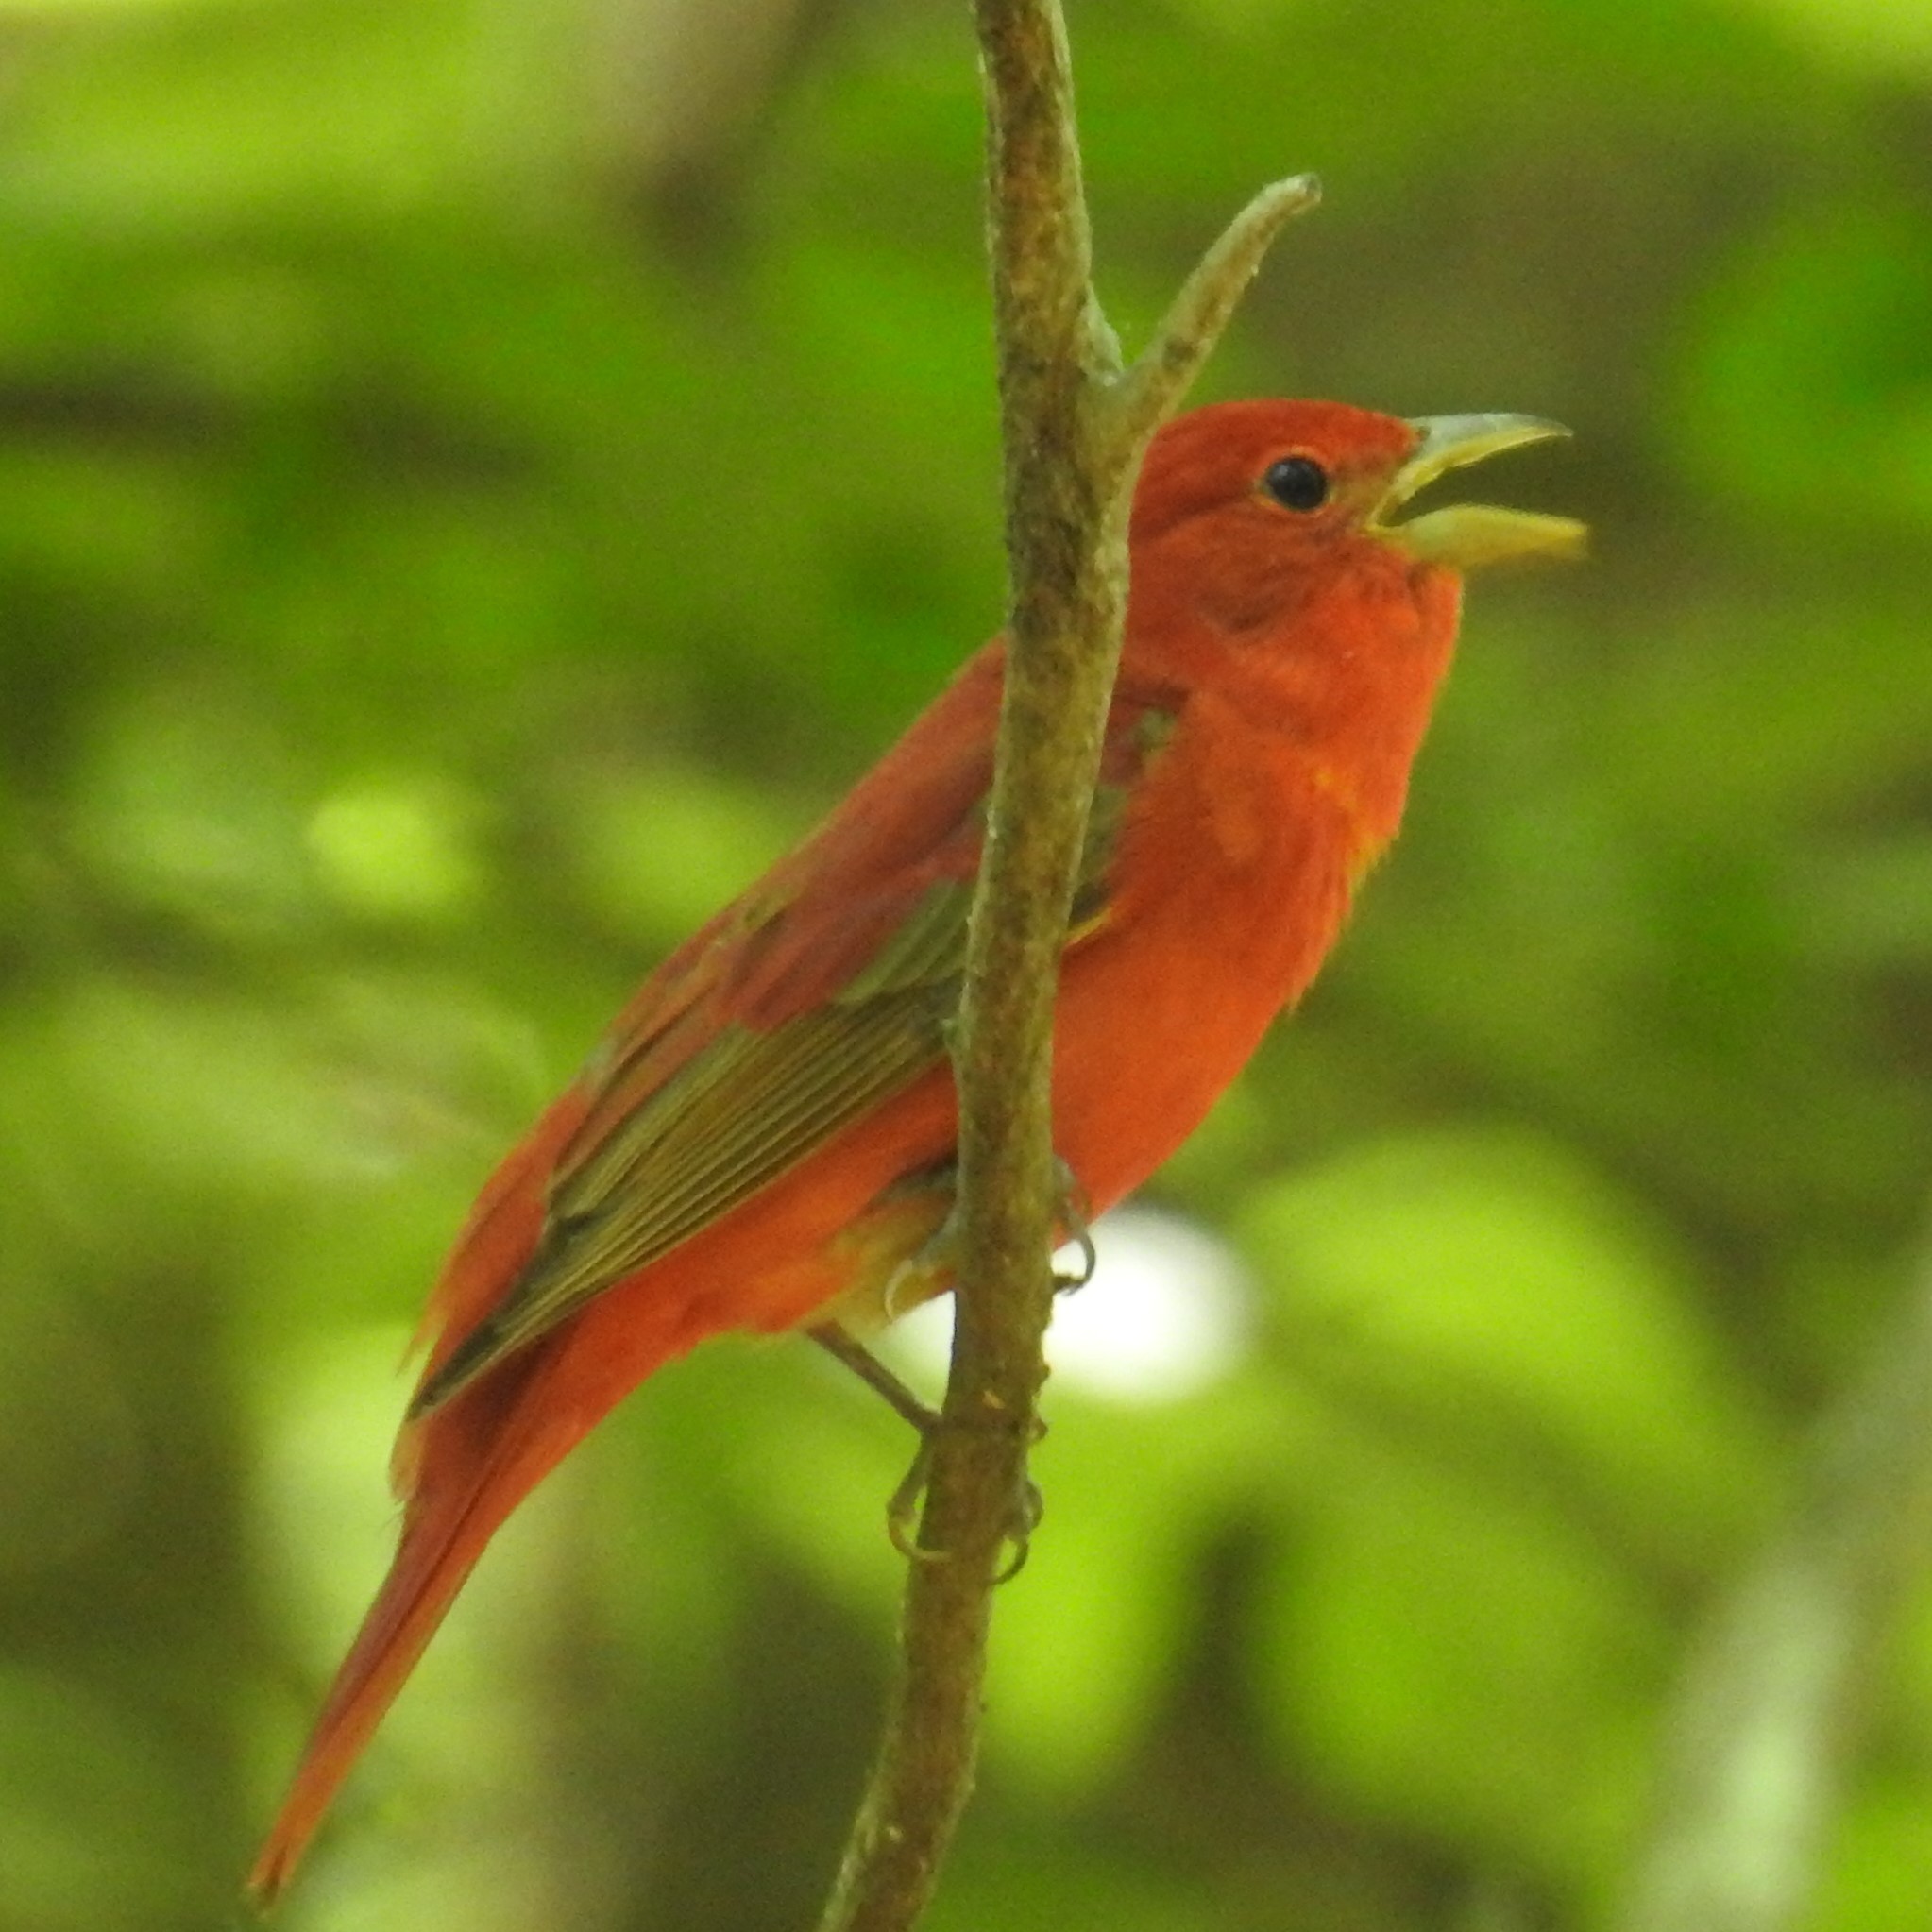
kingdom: Animalia
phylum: Chordata
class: Aves
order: Passeriformes
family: Cardinalidae
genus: Piranga
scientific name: Piranga rubra
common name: Summer tanager
